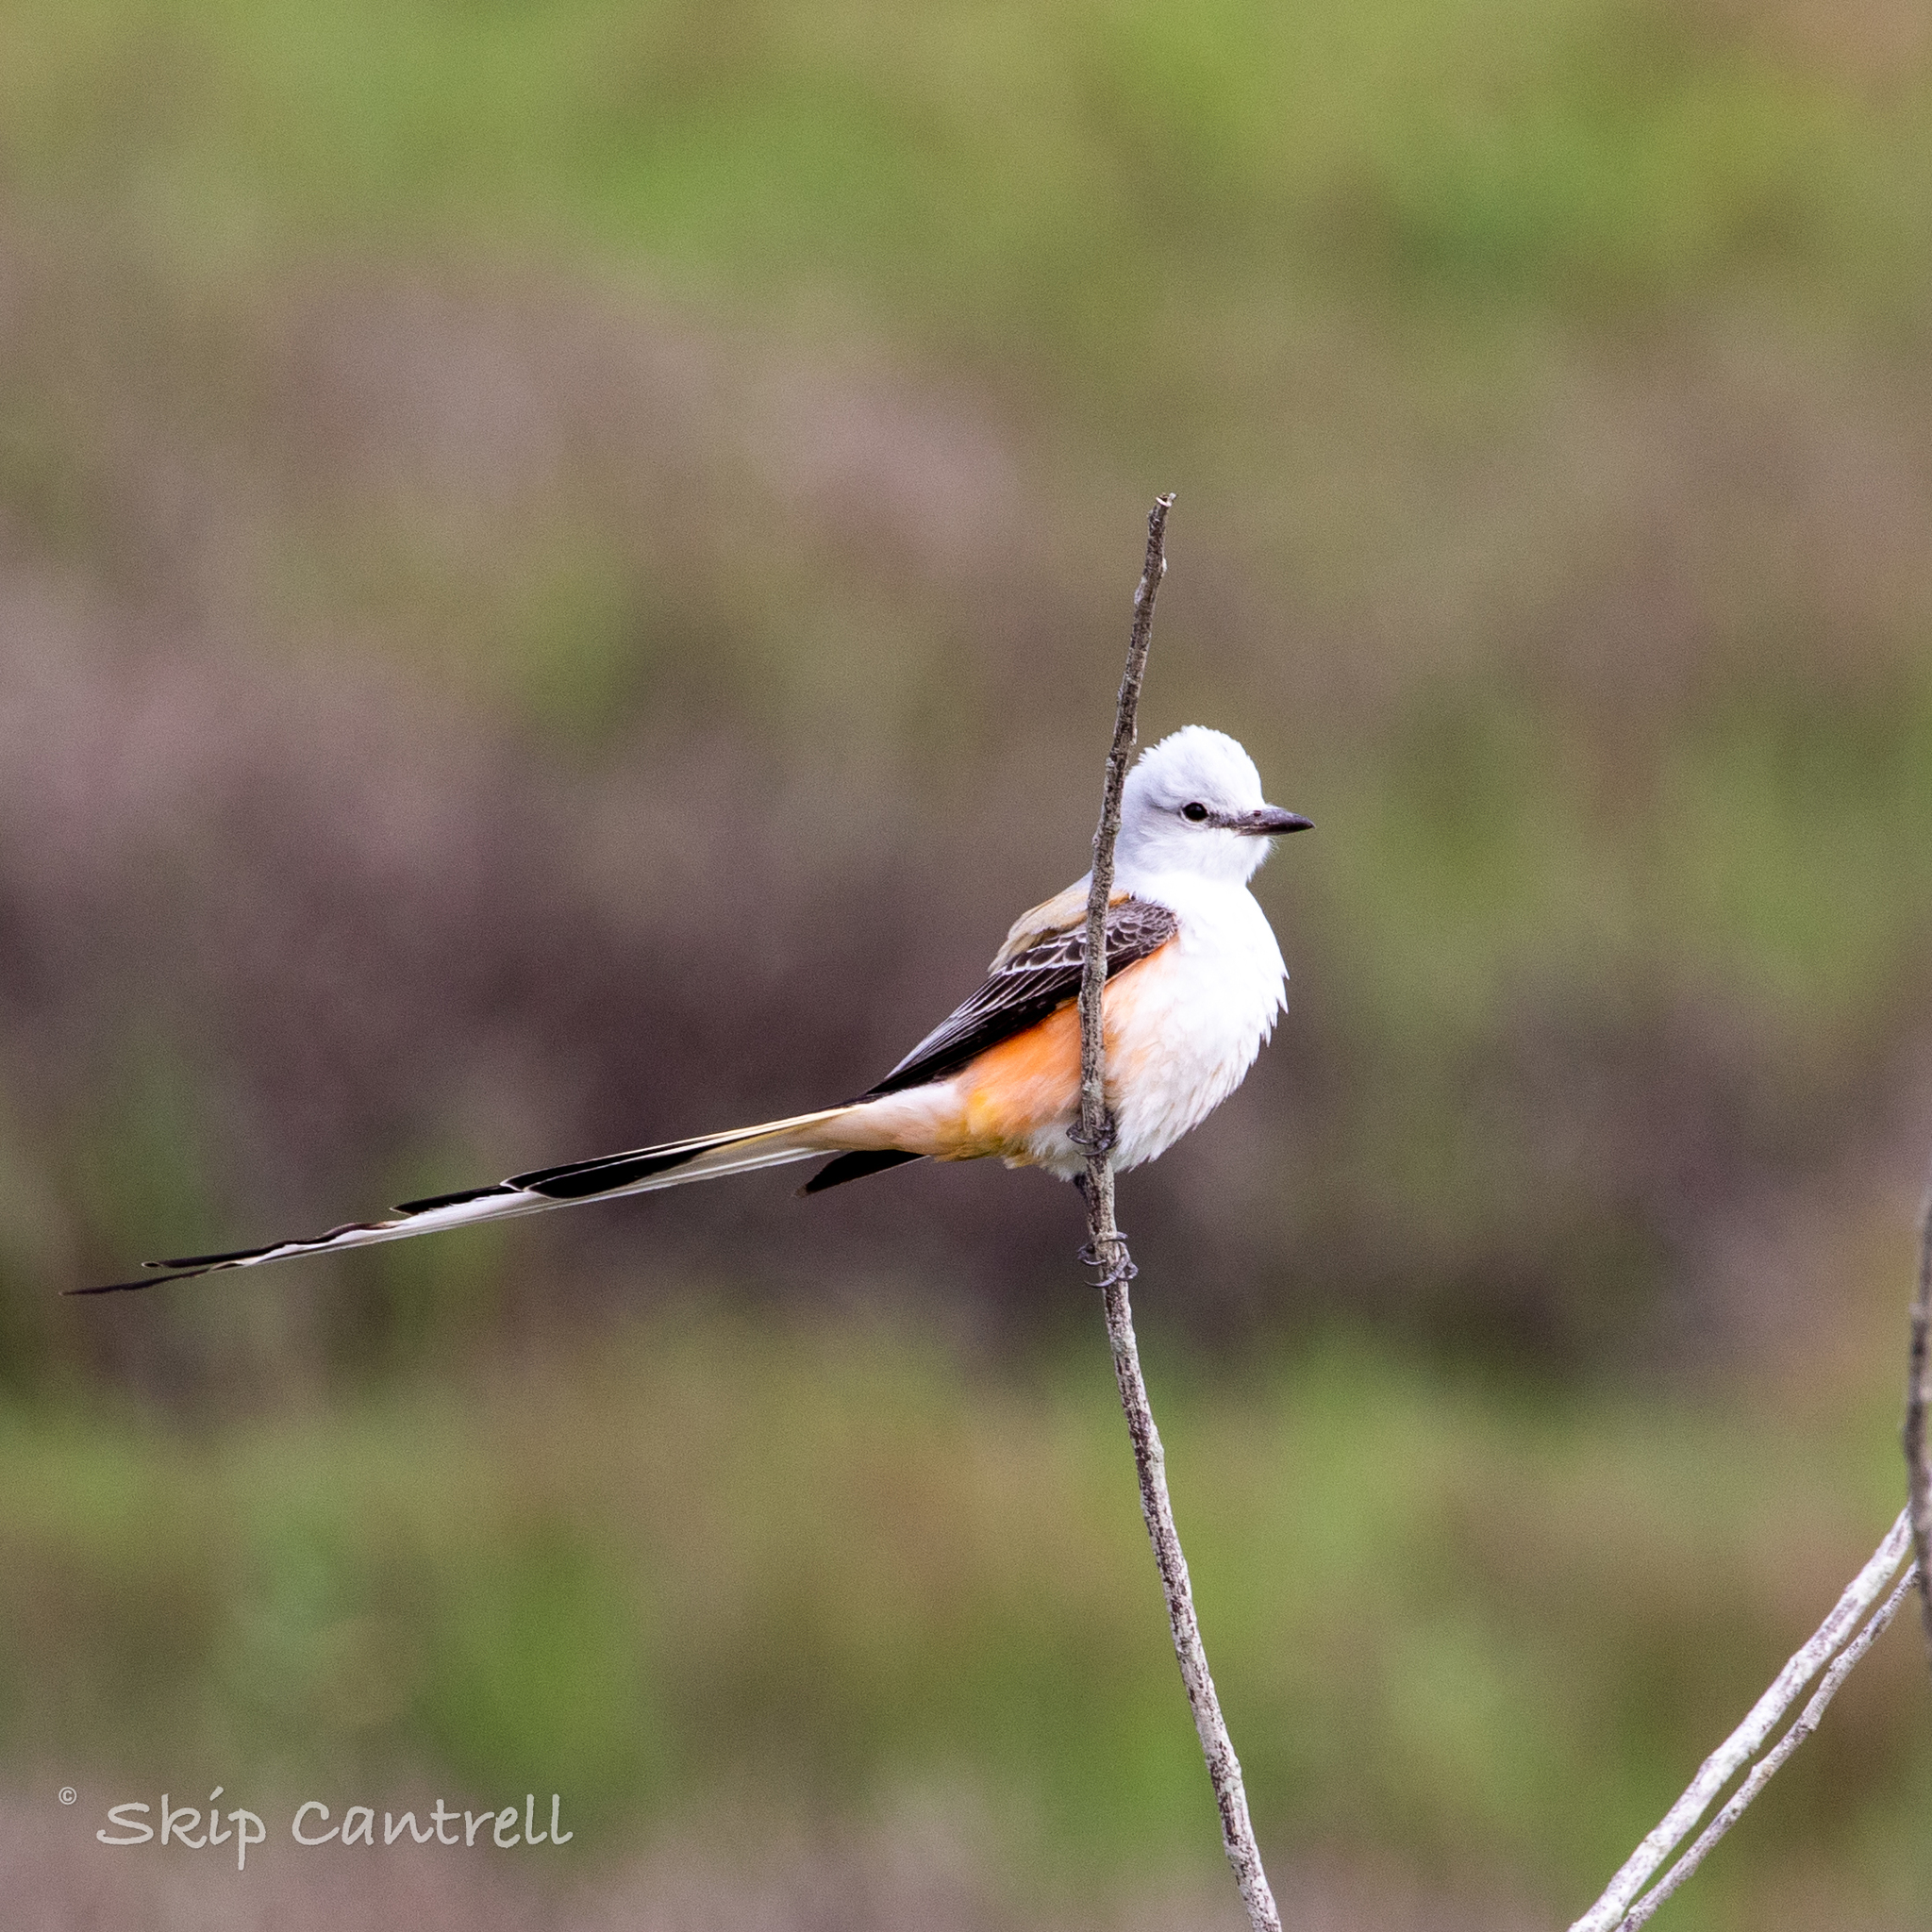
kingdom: Animalia
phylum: Chordata
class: Aves
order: Passeriformes
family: Tyrannidae
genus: Tyrannus
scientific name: Tyrannus forficatus
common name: Scissor-tailed flycatcher
